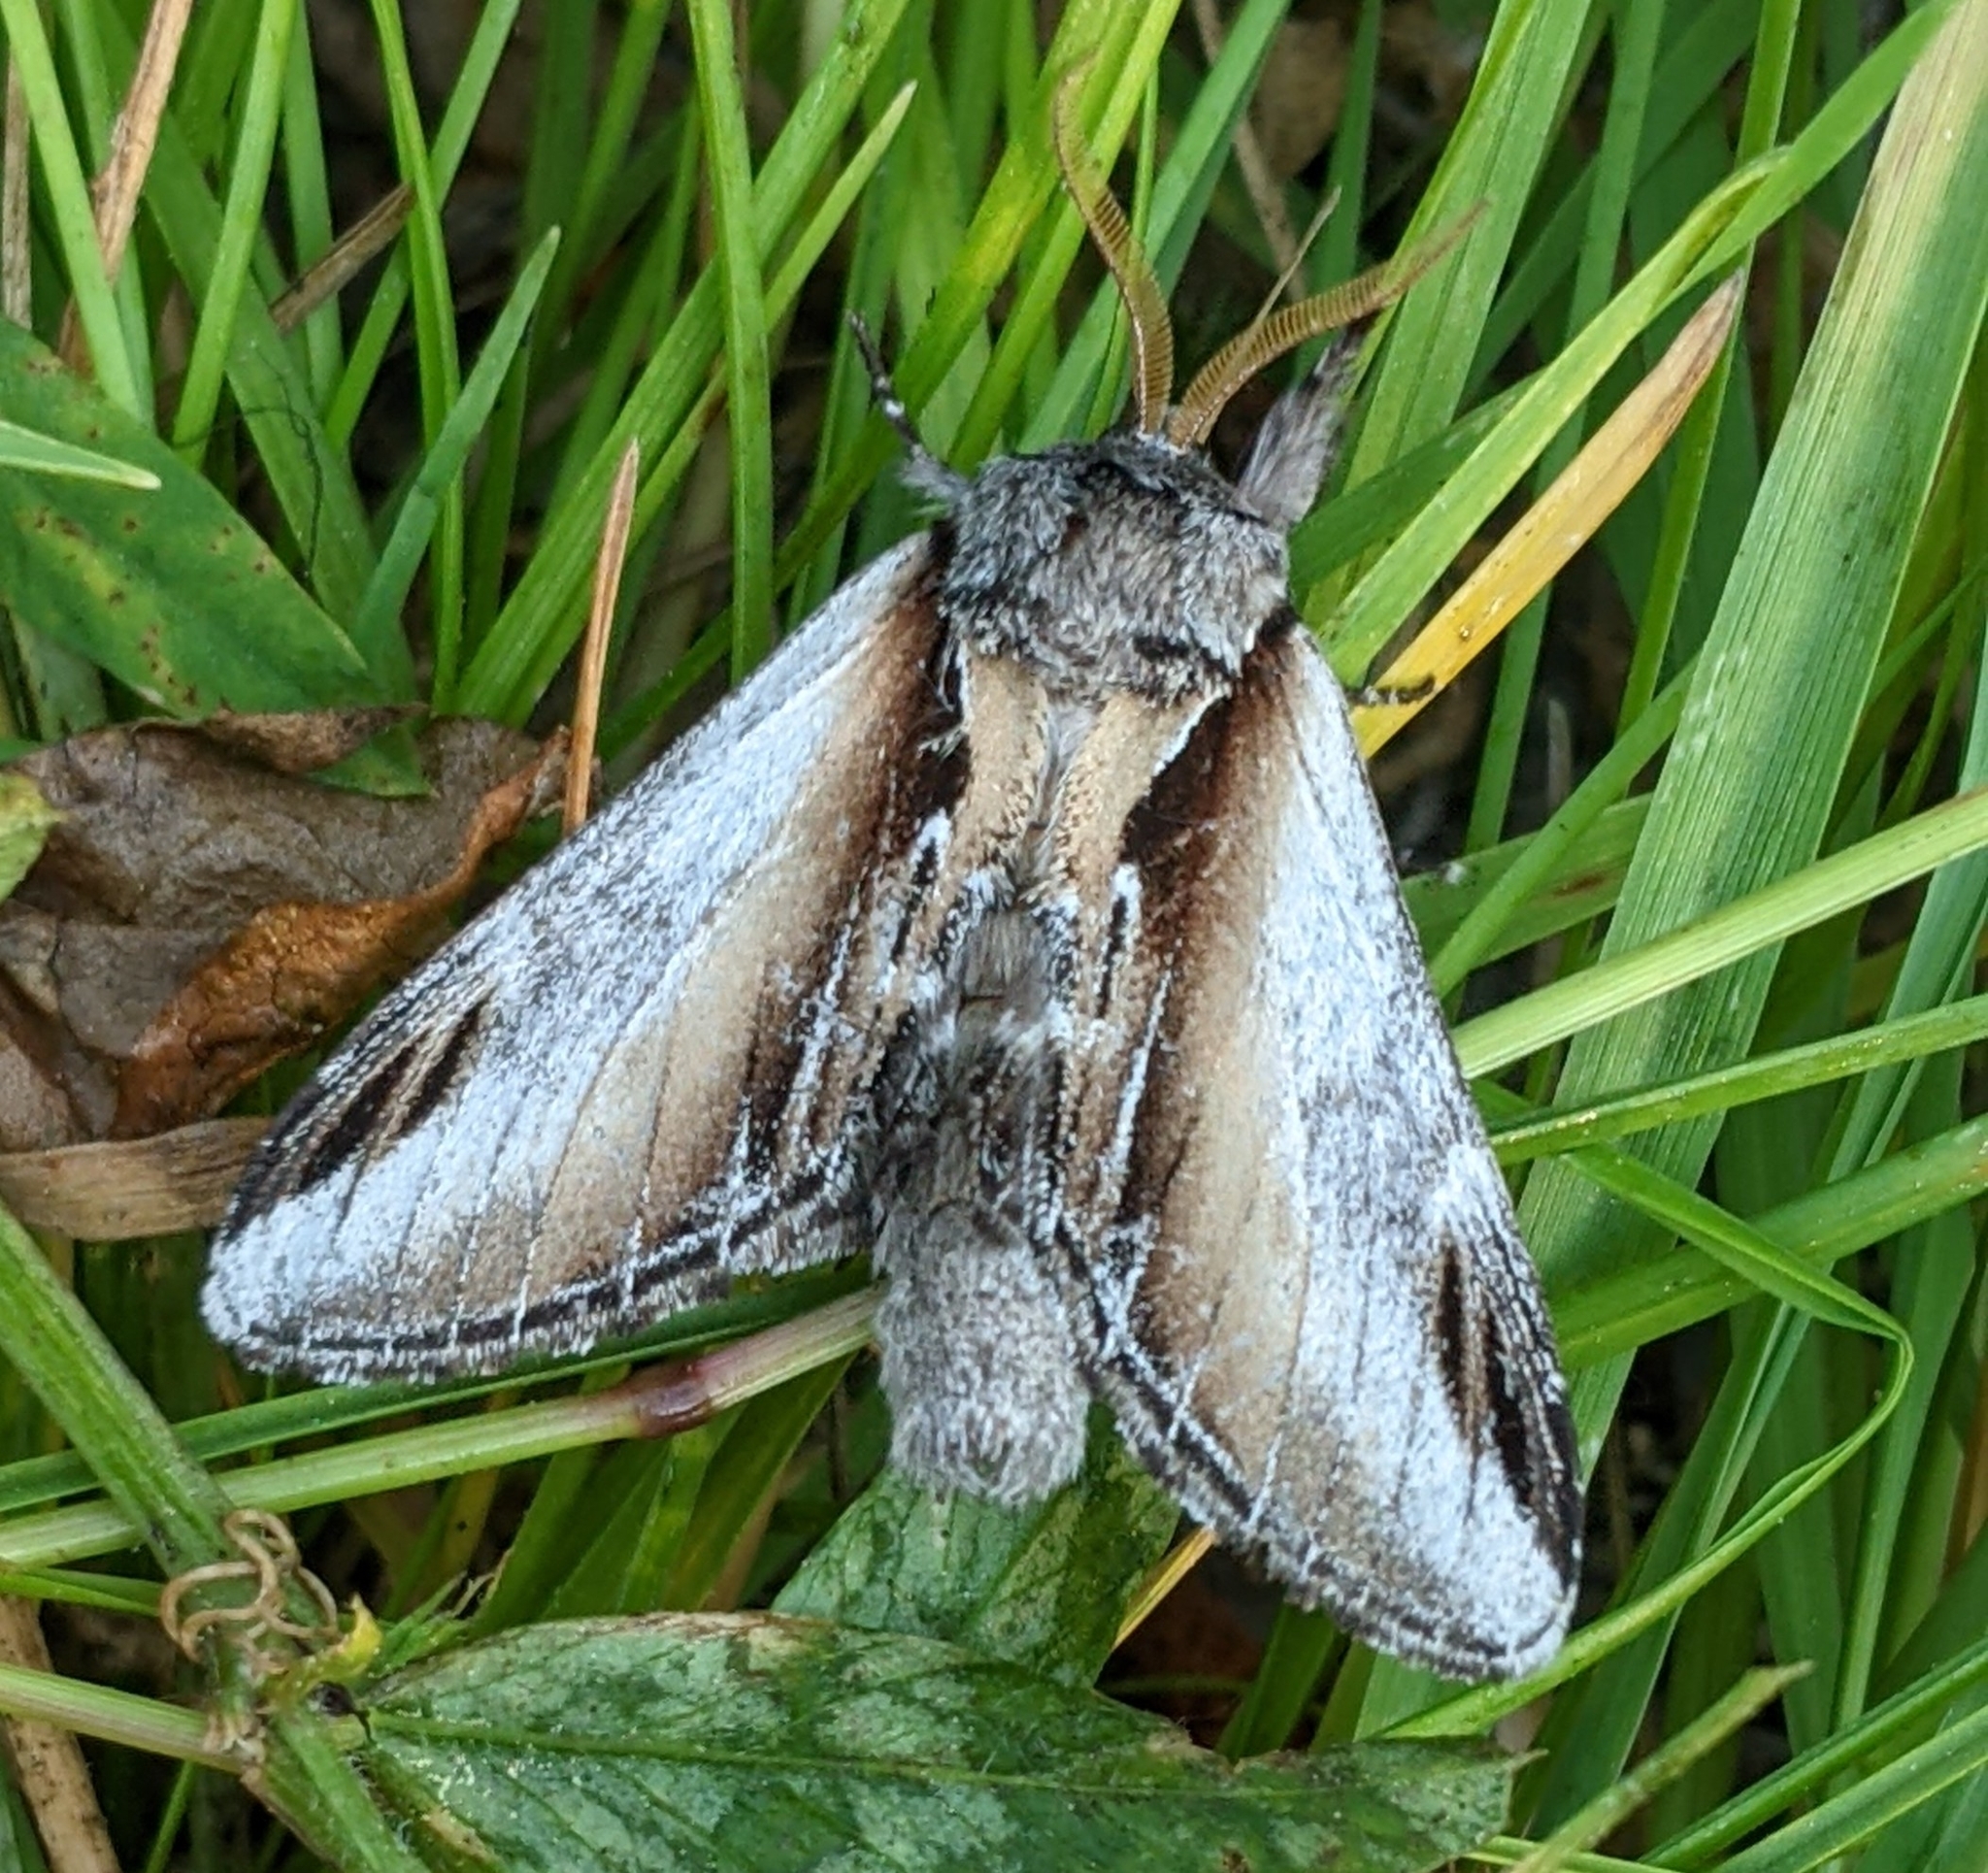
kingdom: Animalia
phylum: Arthropoda
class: Insecta
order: Lepidoptera
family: Notodontidae
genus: Pheosia
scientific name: Pheosia rimosa
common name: Black-rimmed prominent
